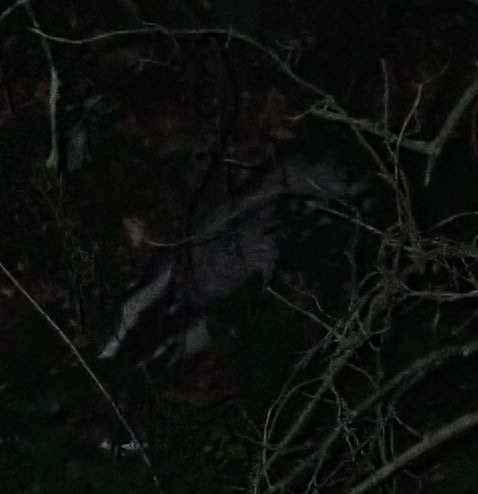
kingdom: Animalia
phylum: Chordata
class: Mammalia
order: Carnivora
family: Mustelidae
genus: Meles
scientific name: Meles meles
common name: Eurasian badger
